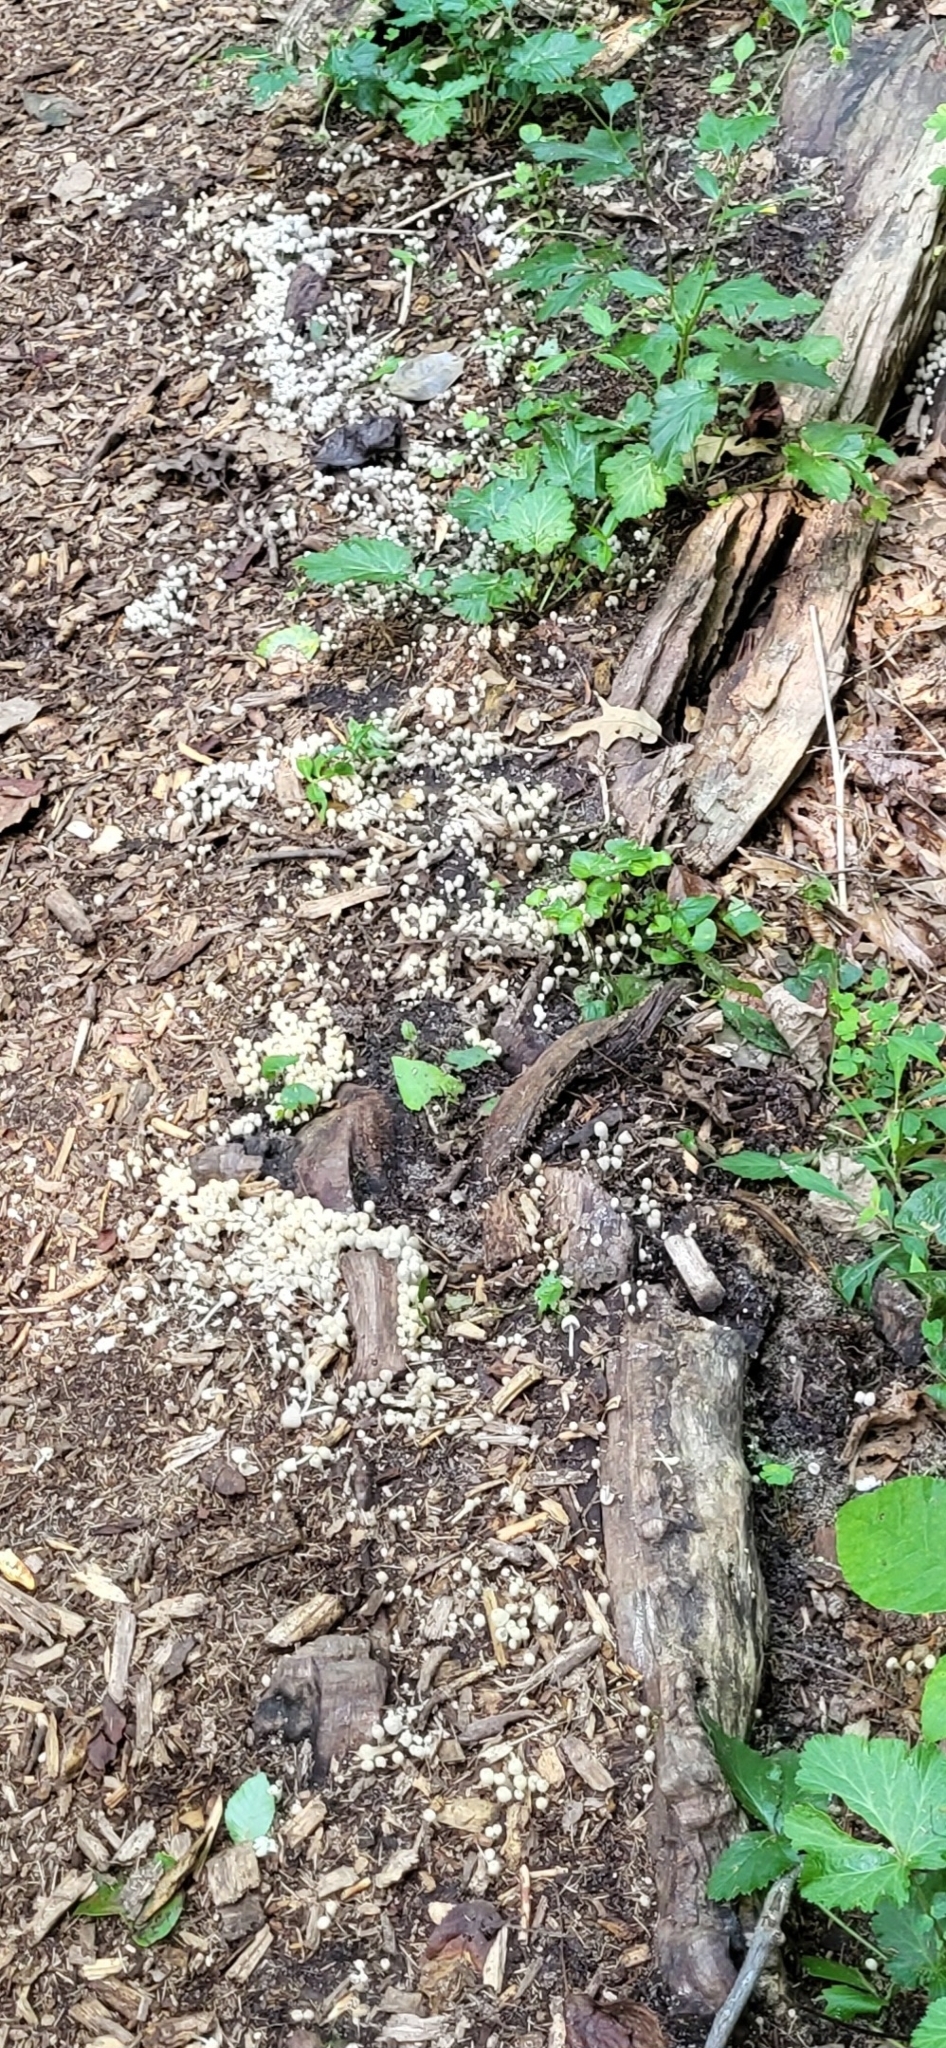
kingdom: Fungi
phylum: Basidiomycota
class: Agaricomycetes
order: Agaricales
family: Psathyrellaceae
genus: Coprinellus
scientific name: Coprinellus disseminatus
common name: Fairies' bonnets
